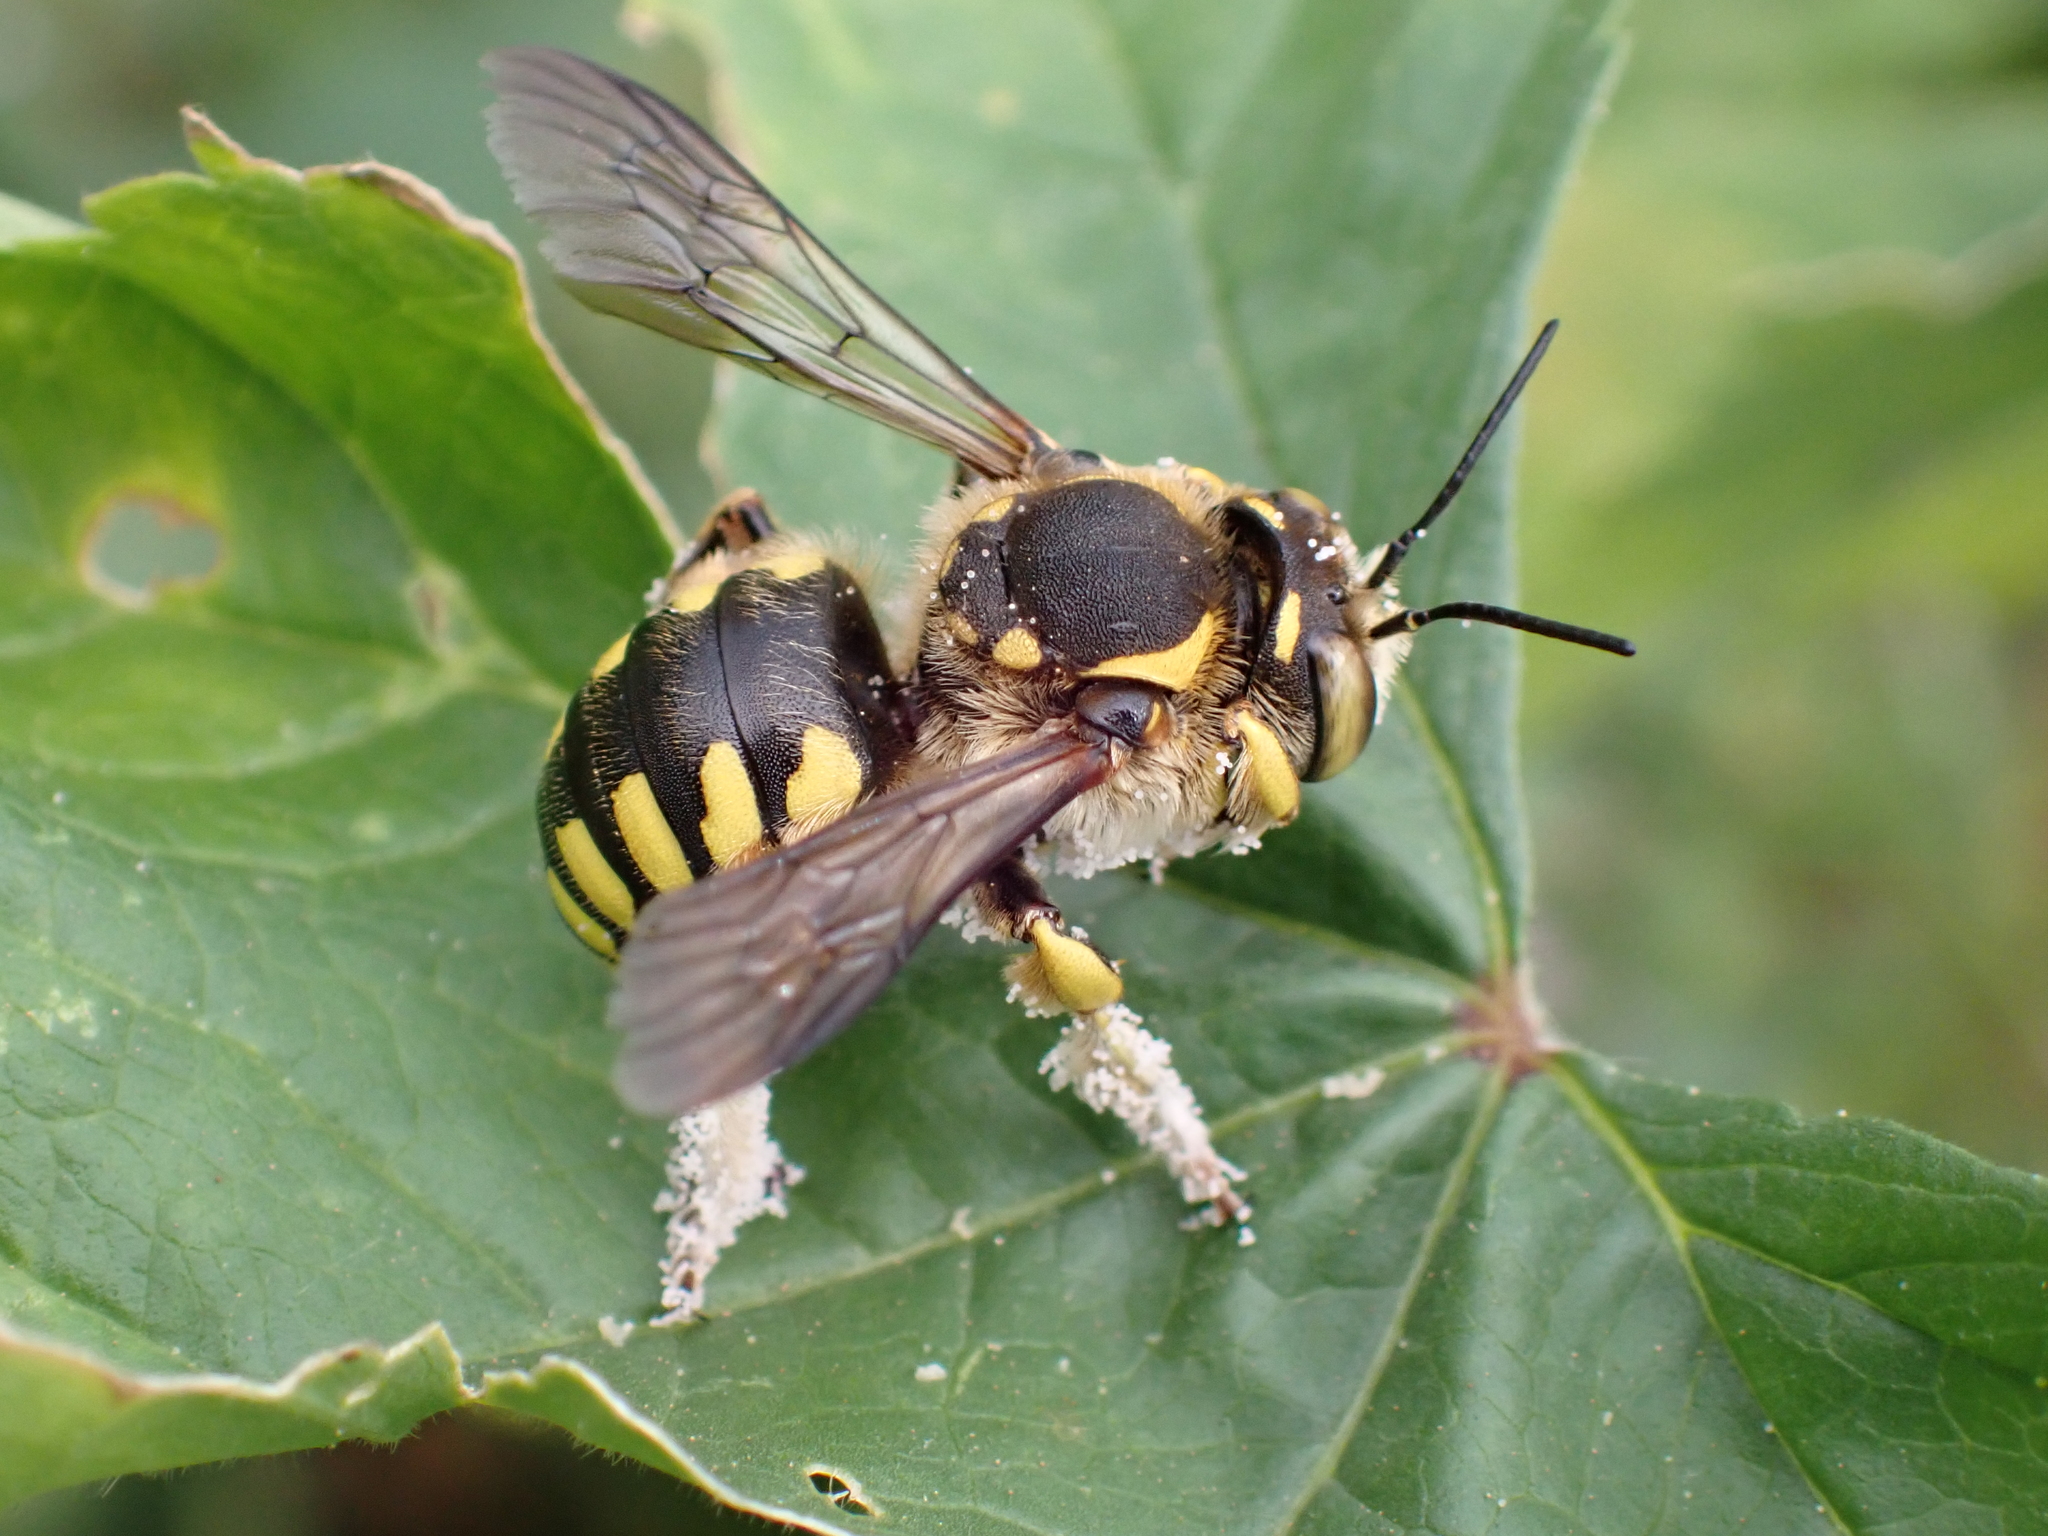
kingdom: Animalia
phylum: Arthropoda
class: Insecta
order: Hymenoptera
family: Megachilidae
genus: Anthidium
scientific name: Anthidium florentinum
